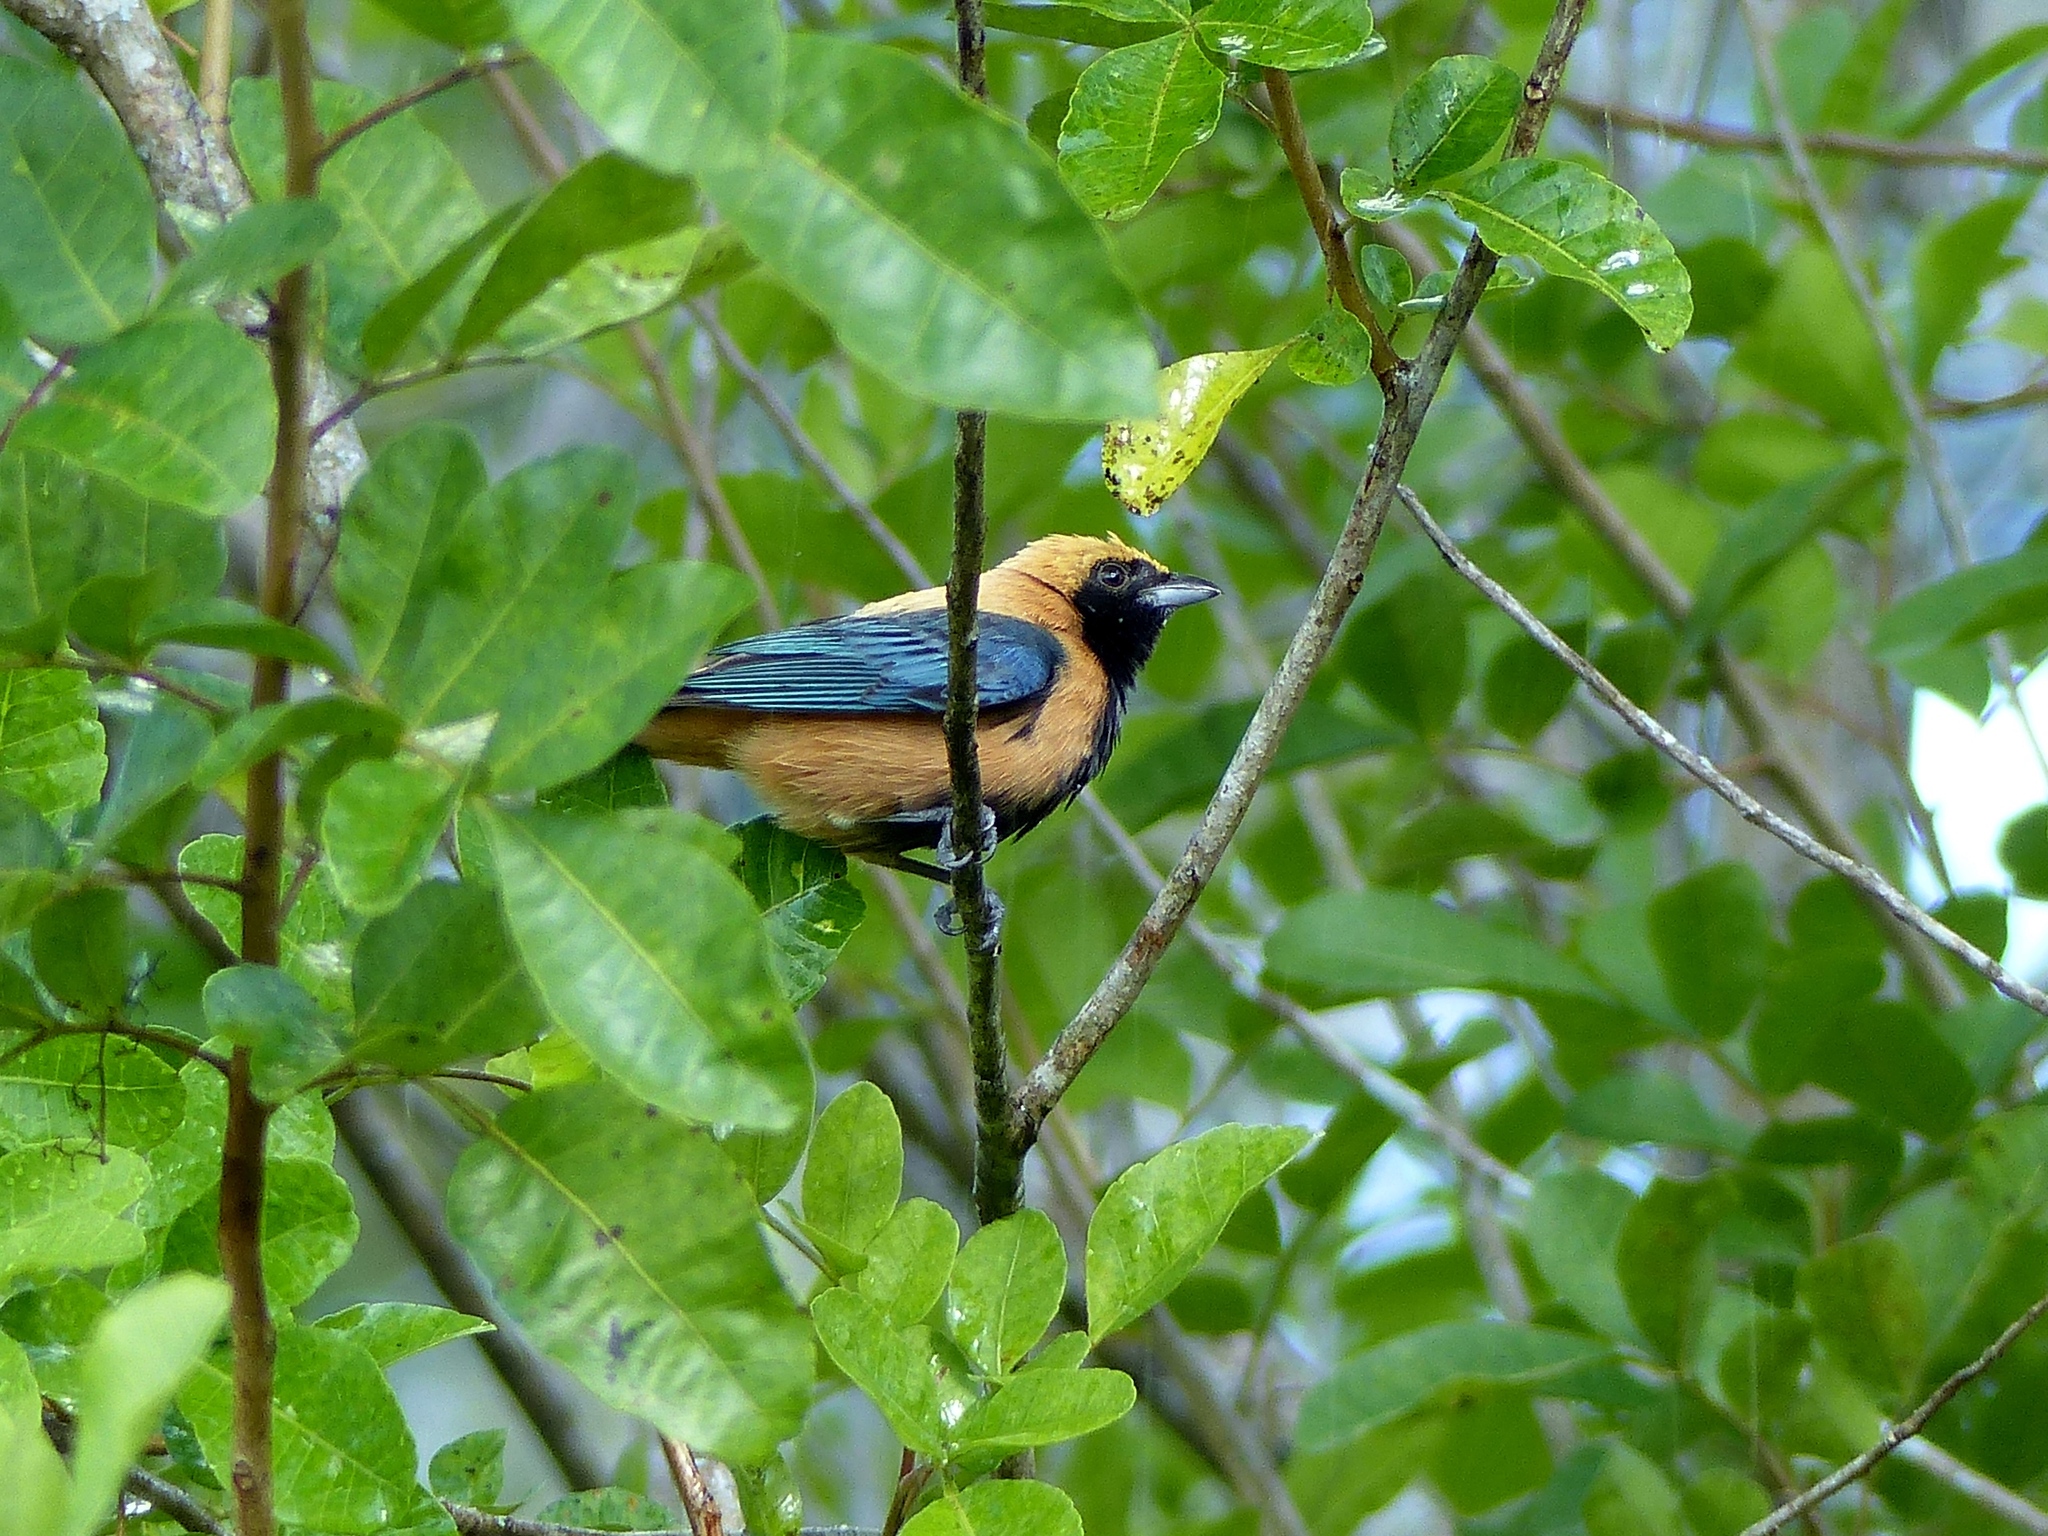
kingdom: Animalia
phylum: Chordata
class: Aves
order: Passeriformes
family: Thraupidae
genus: Stilpnia
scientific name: Stilpnia cayana
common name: Burnished-buff tanager
